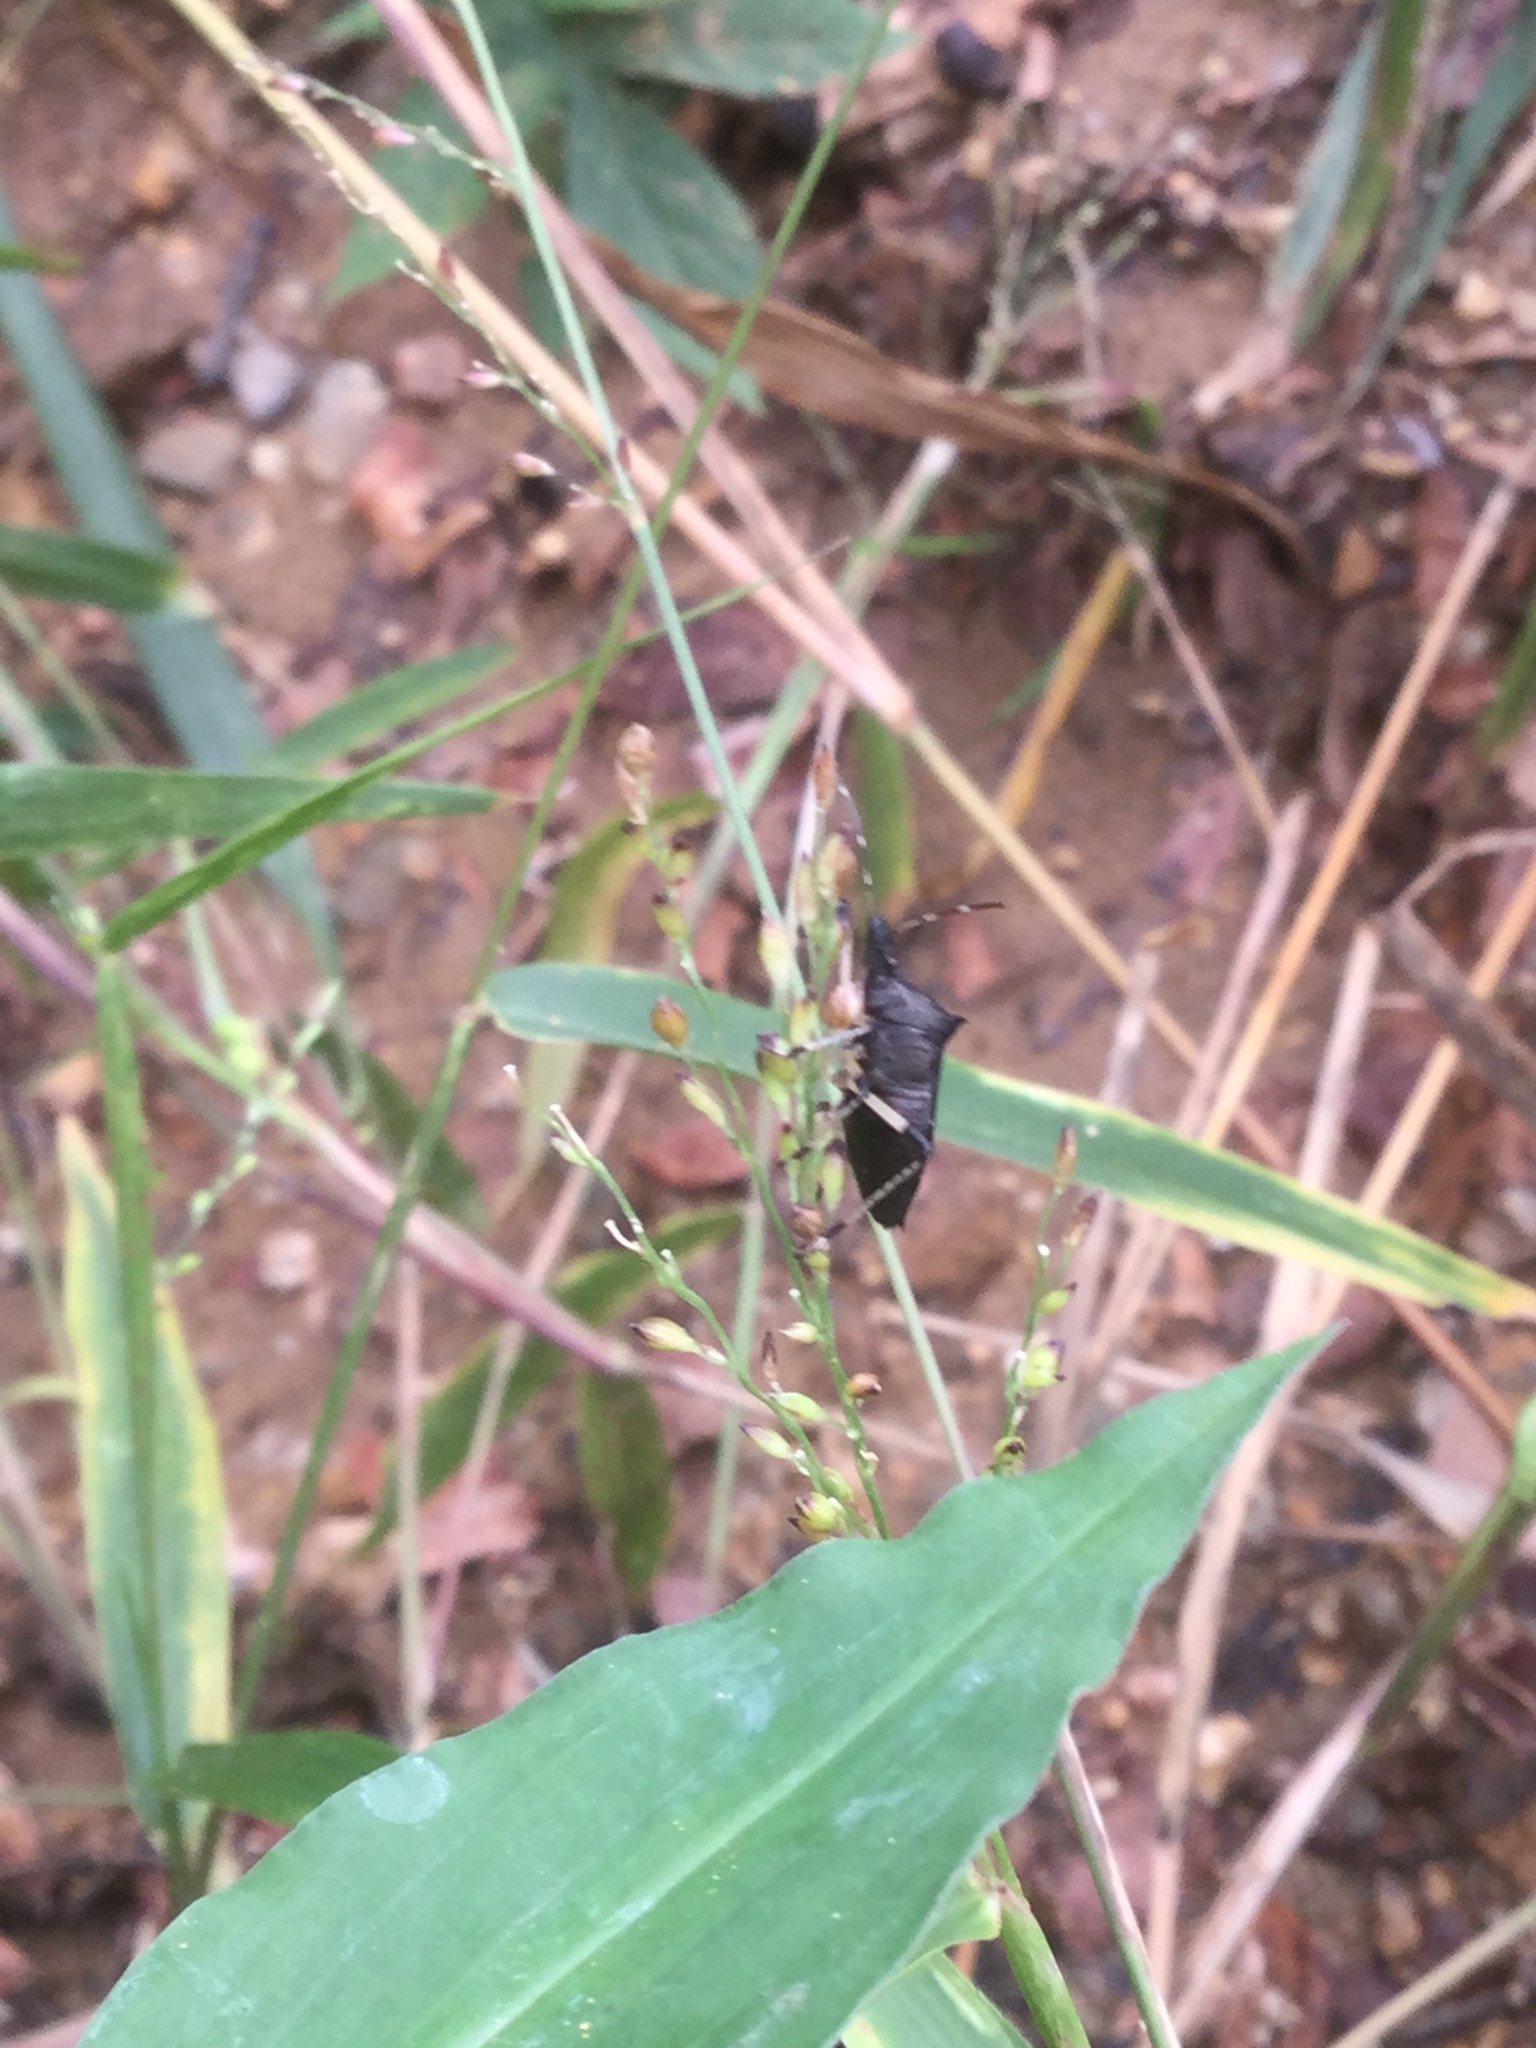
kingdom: Animalia
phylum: Arthropoda
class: Insecta
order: Hemiptera
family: Pentatomidae
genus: Proxys
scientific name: Proxys punctulatus
